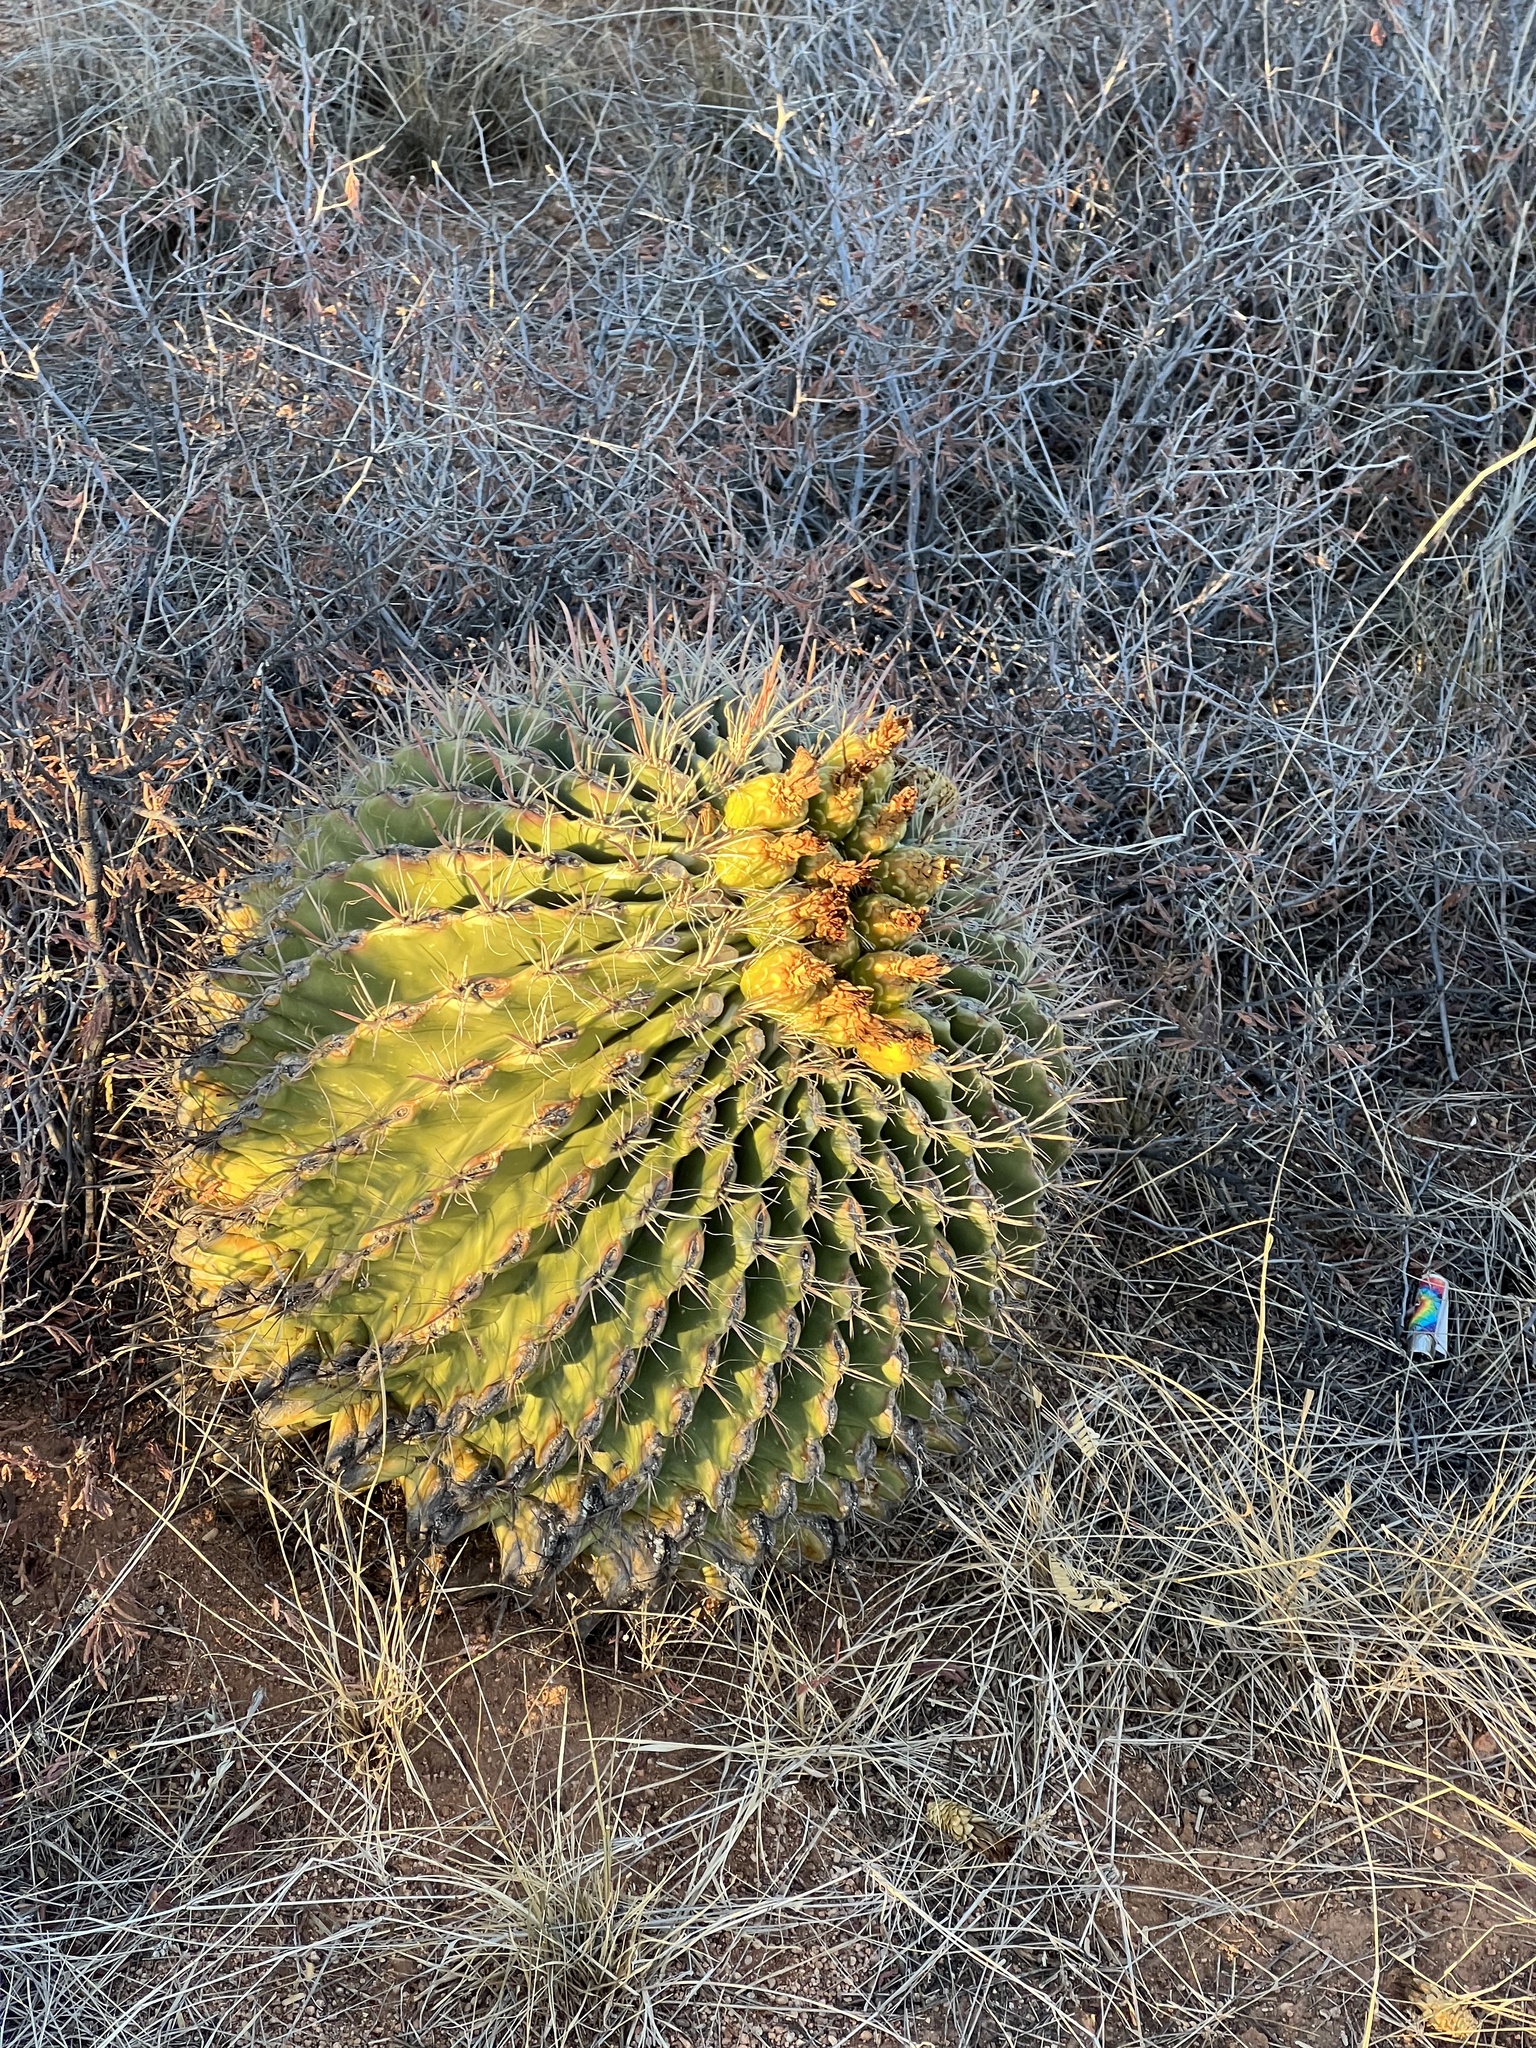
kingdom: Plantae
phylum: Tracheophyta
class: Magnoliopsida
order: Caryophyllales
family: Cactaceae
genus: Ferocactus
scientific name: Ferocactus wislizeni
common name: Candy barrel cactus
